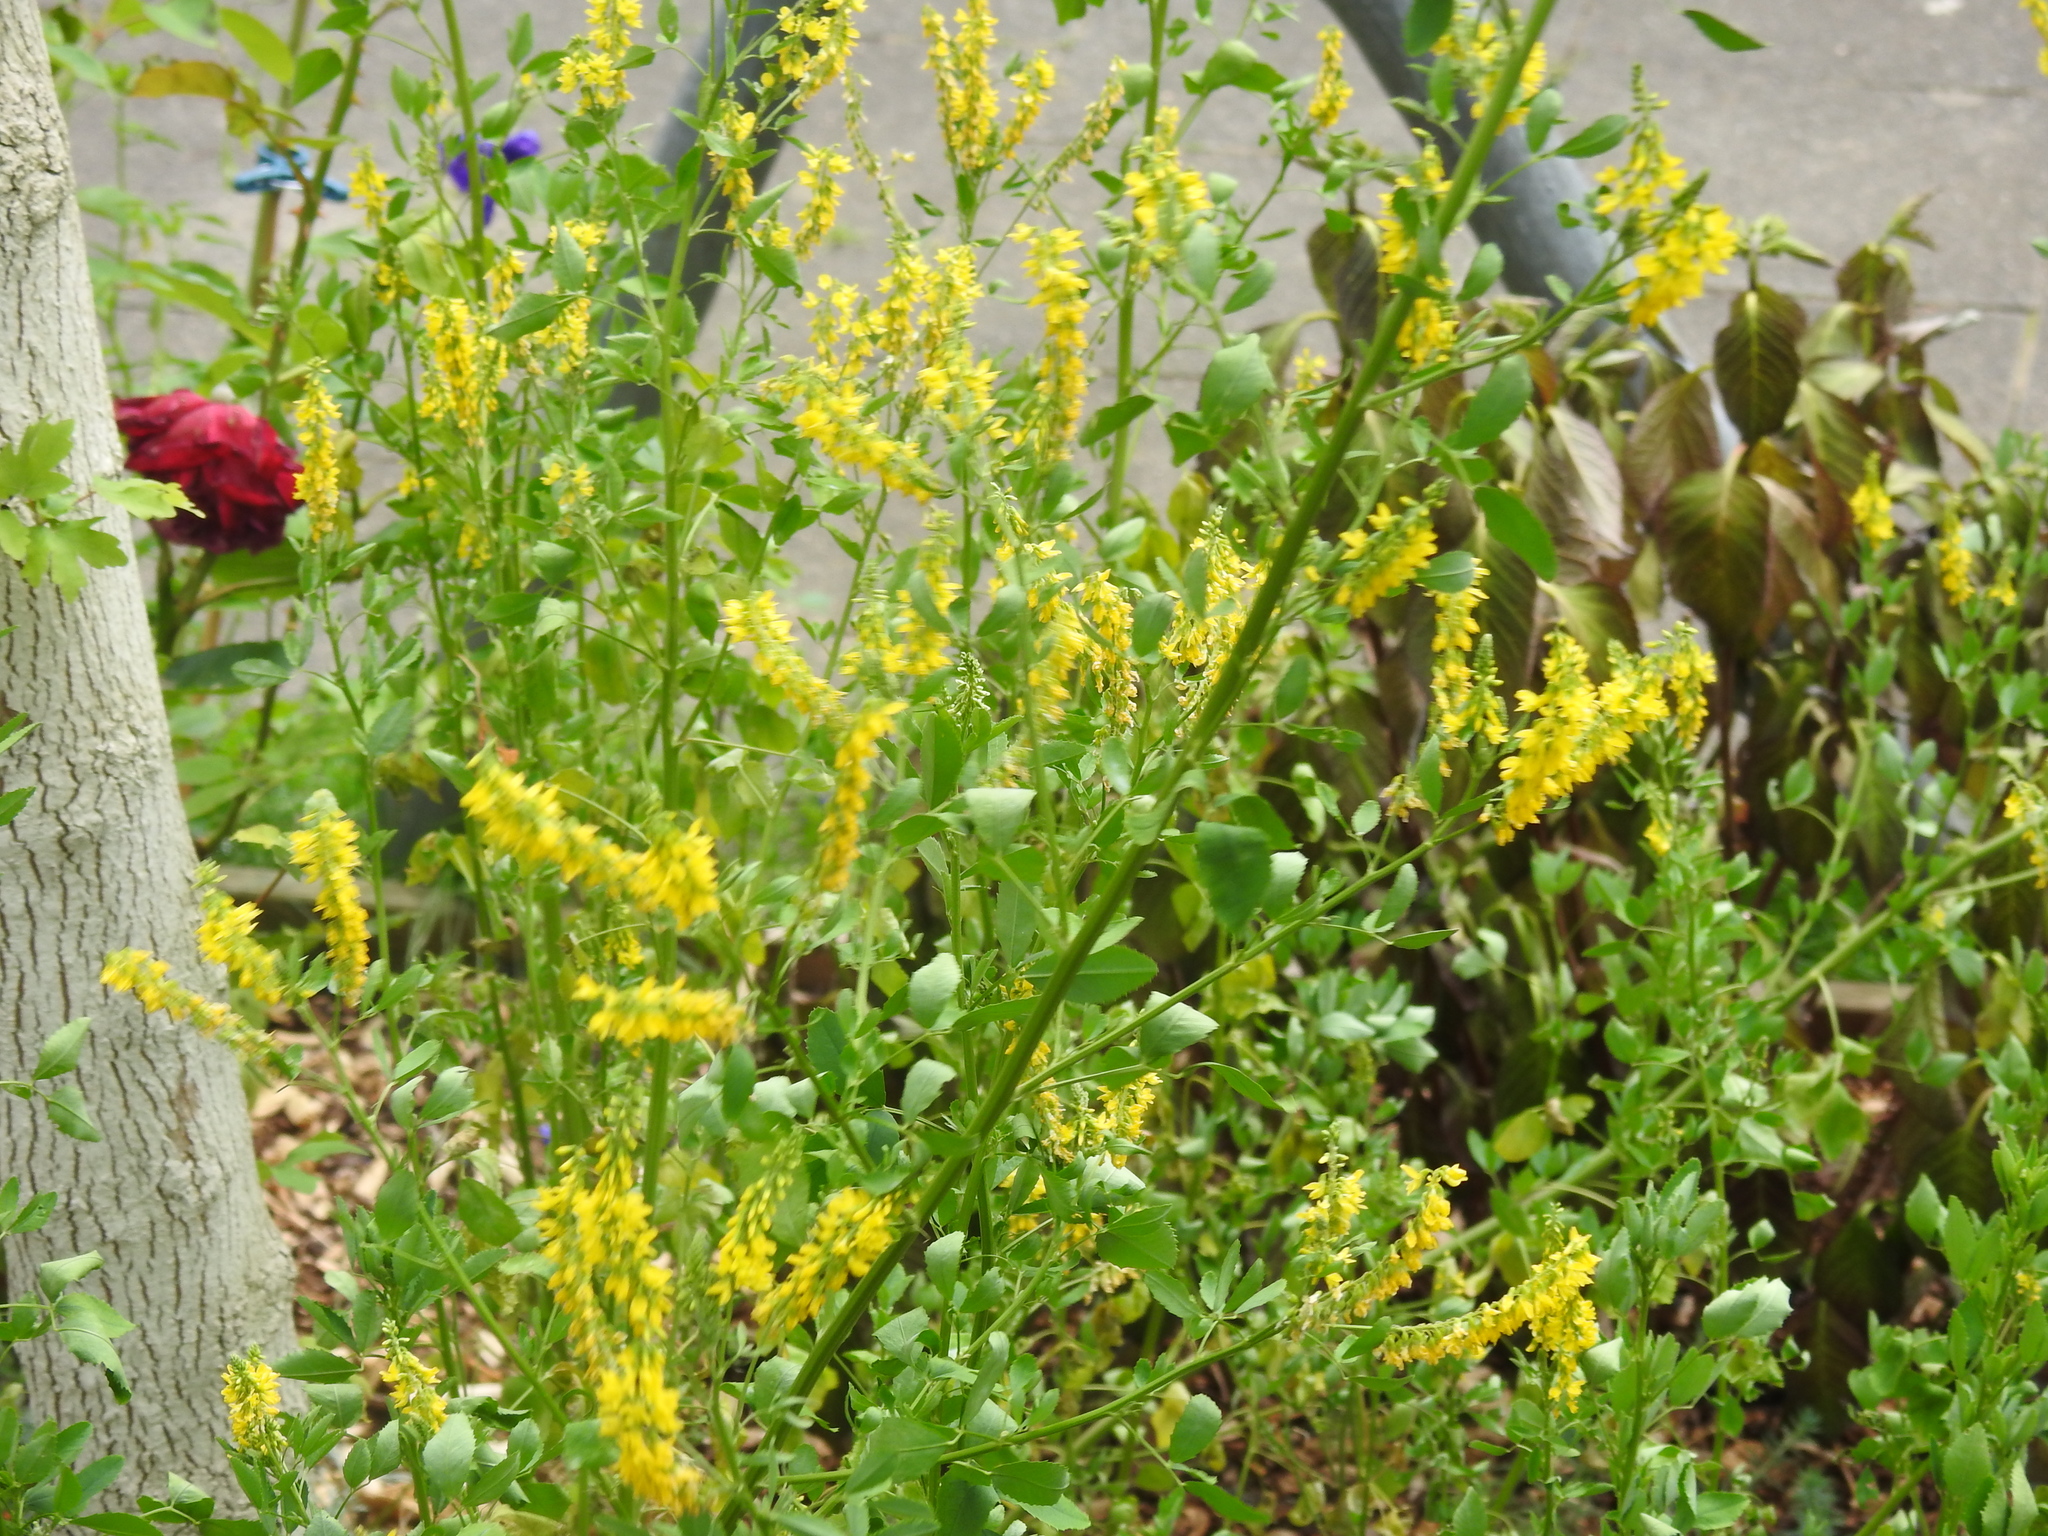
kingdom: Plantae
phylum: Tracheophyta
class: Magnoliopsida
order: Fabales
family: Fabaceae
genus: Melilotus
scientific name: Melilotus officinalis
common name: Sweetclover
